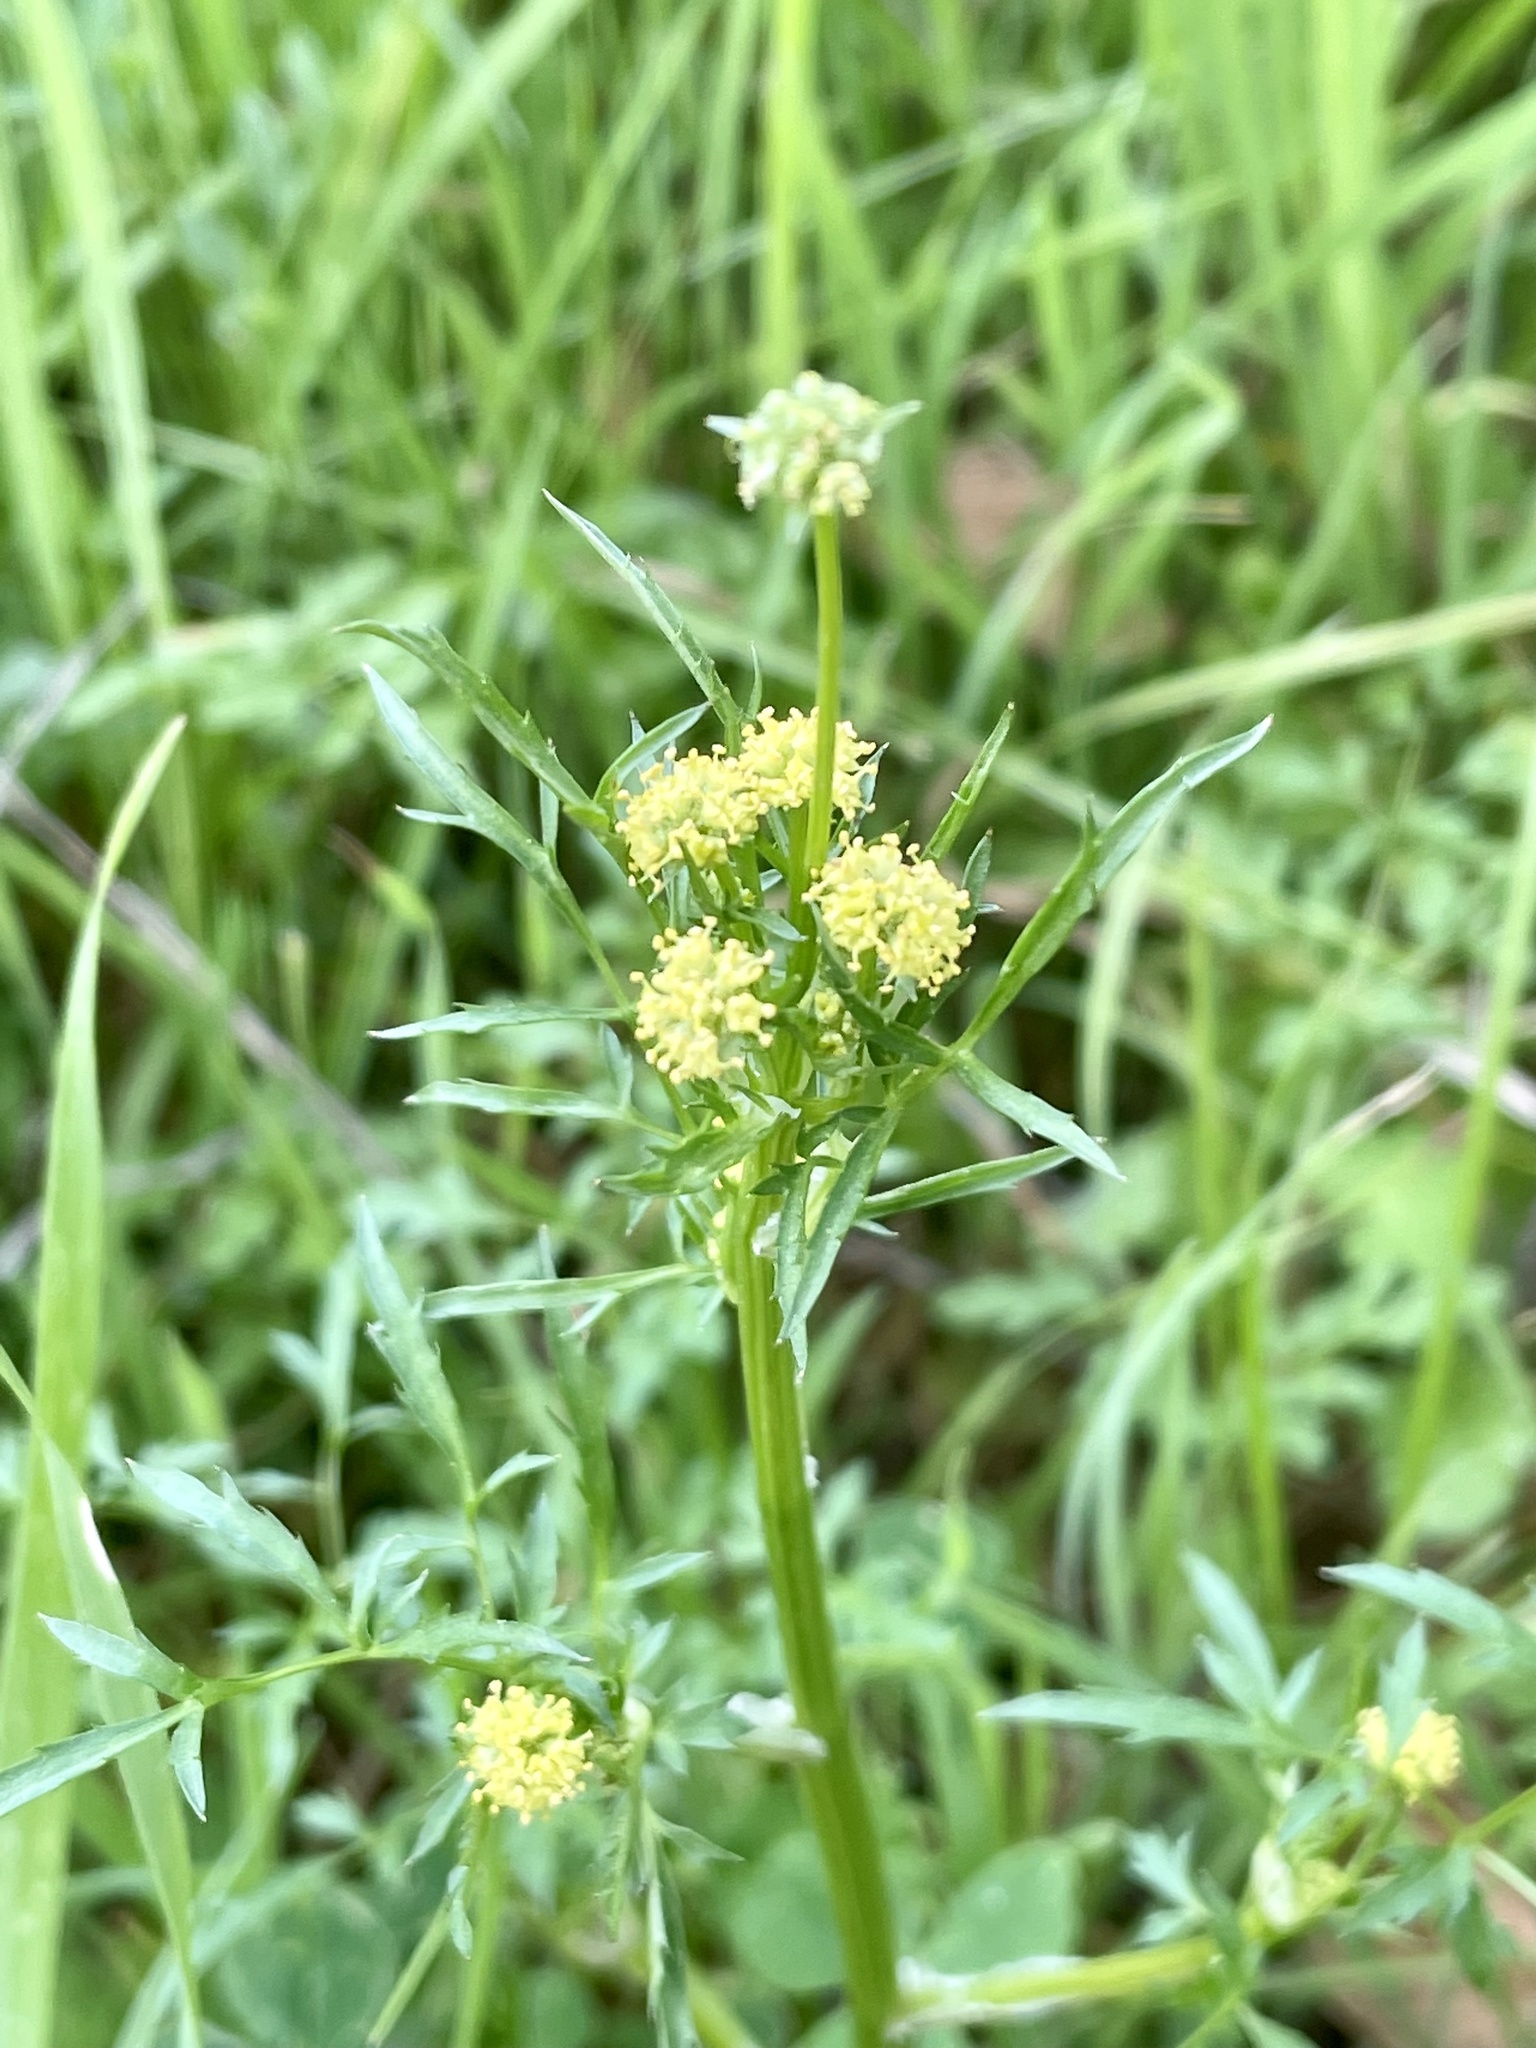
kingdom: Plantae
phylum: Tracheophyta
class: Magnoliopsida
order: Apiales
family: Apiaceae
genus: Sanicula
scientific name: Sanicula bipinnata
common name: Poison sanicle
